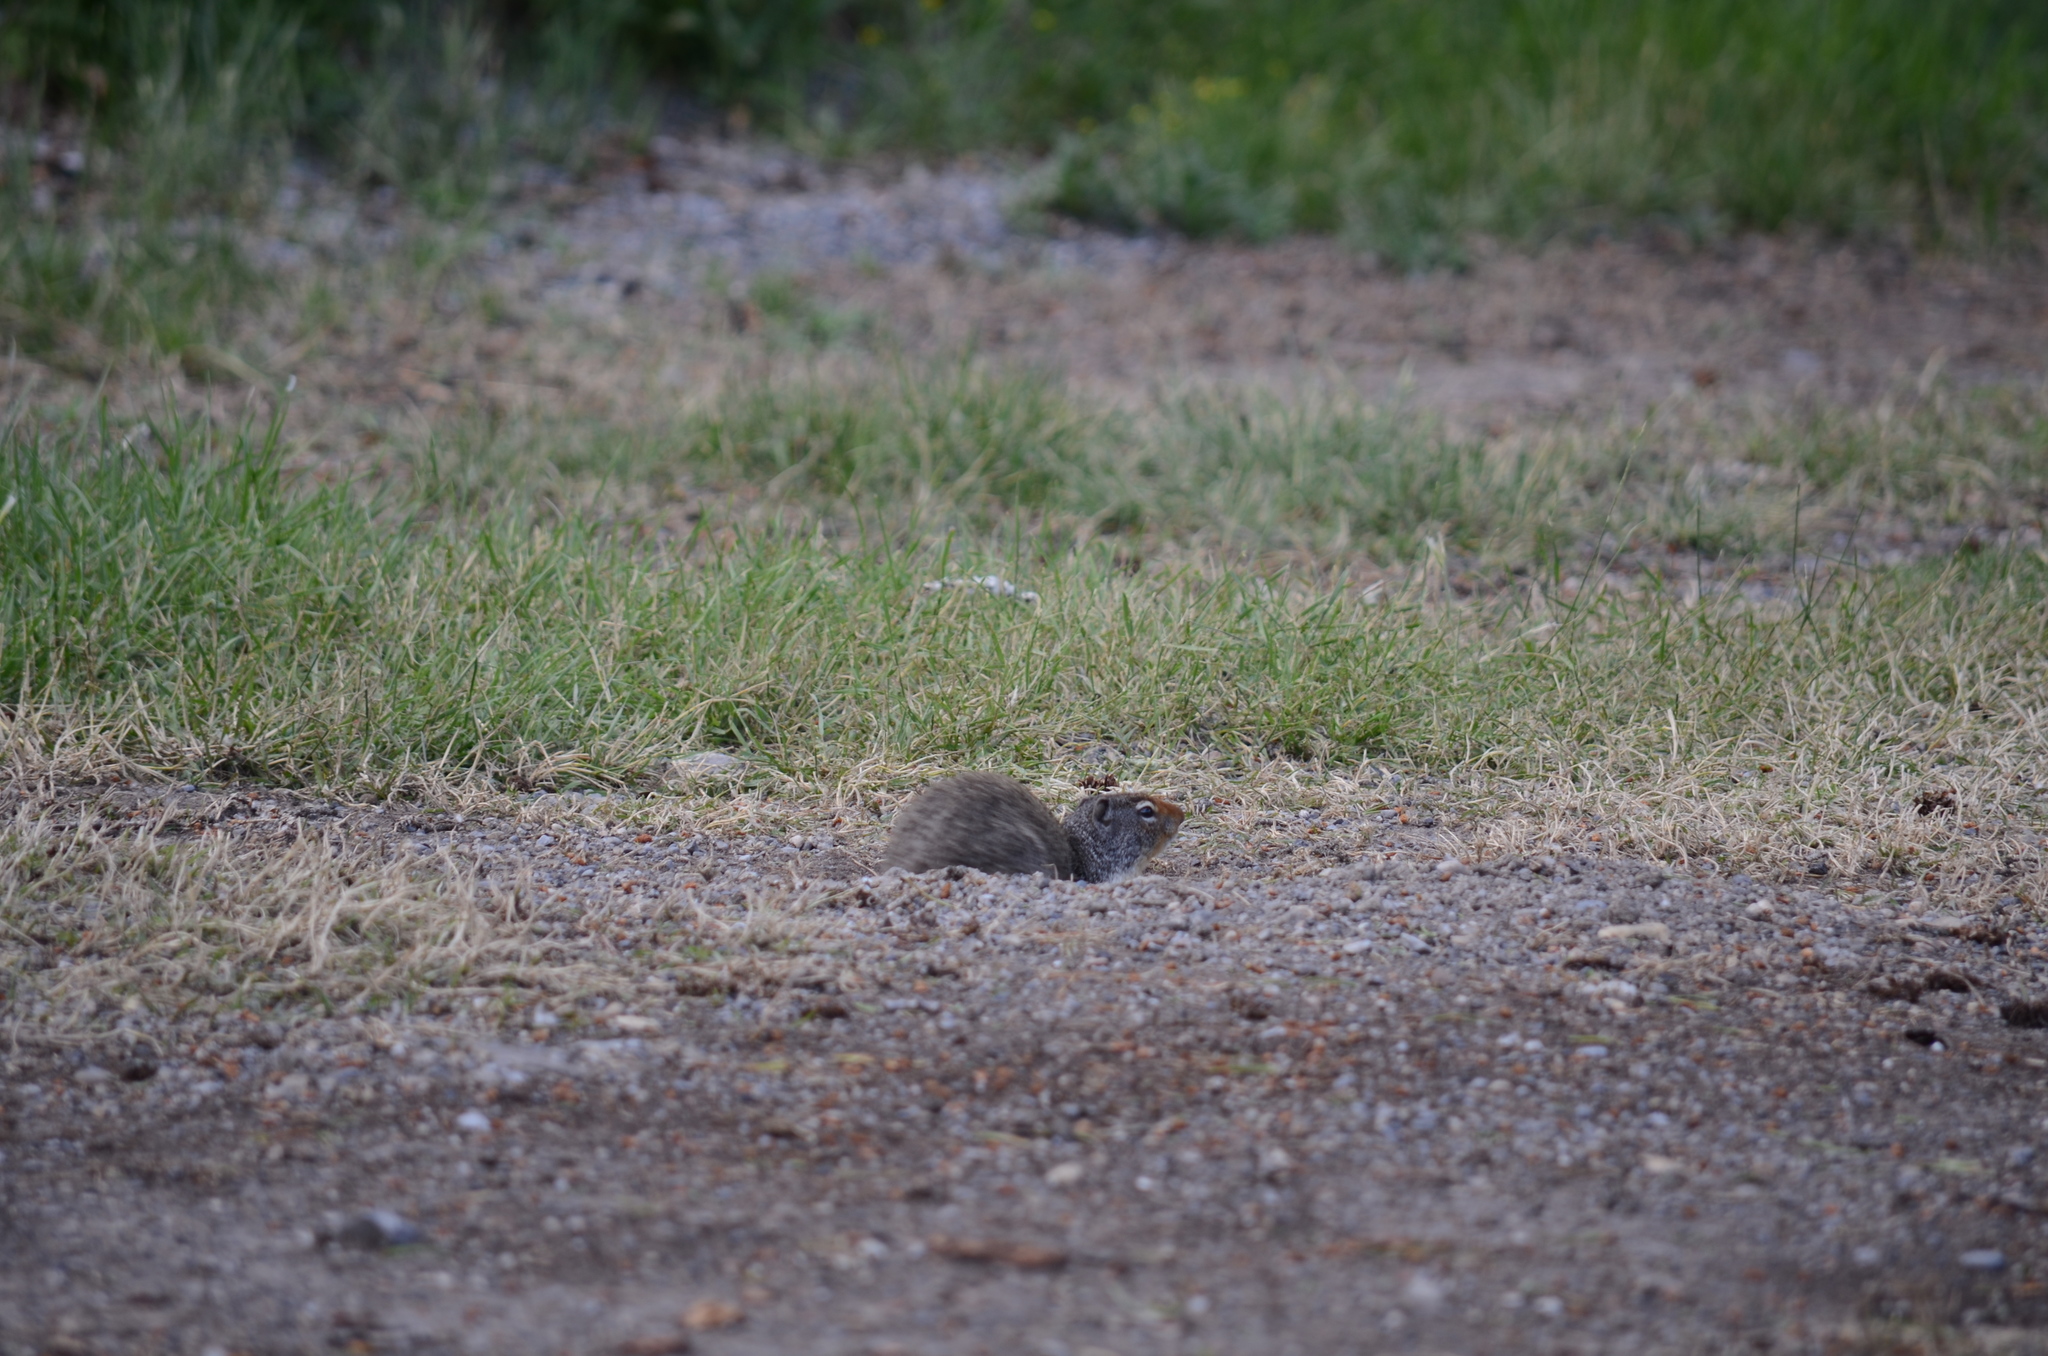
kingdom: Animalia
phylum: Chordata
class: Mammalia
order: Rodentia
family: Sciuridae
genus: Urocitellus
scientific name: Urocitellus columbianus
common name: Columbian ground squirrel
